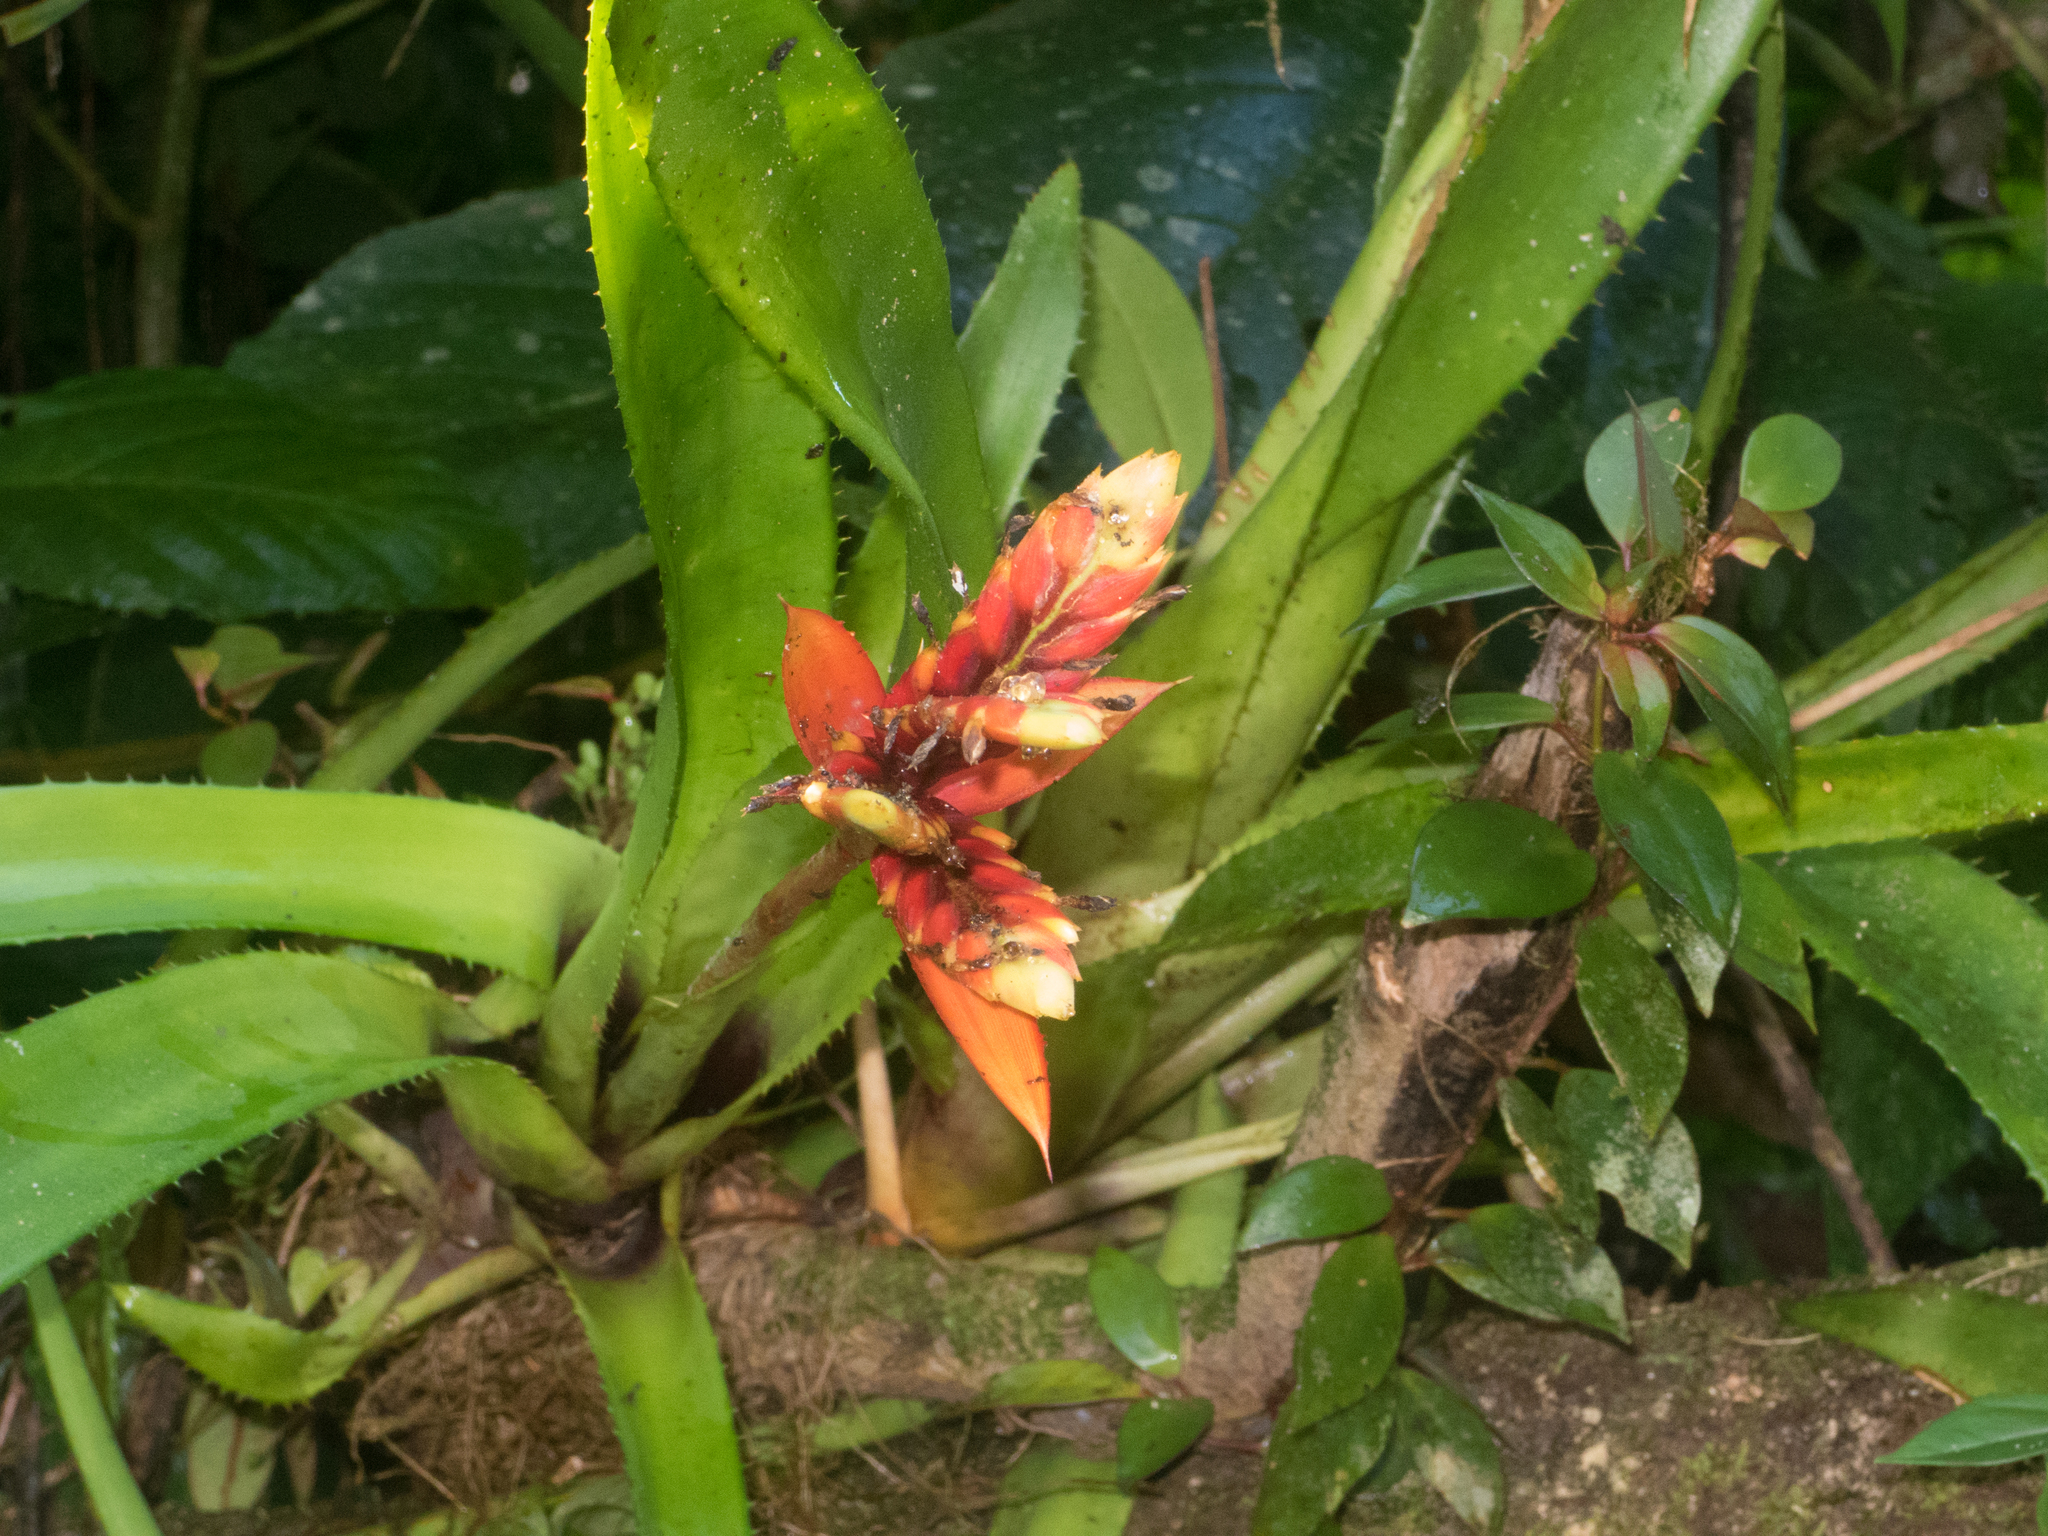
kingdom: Plantae
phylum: Tracheophyta
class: Liliopsida
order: Poales
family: Bromeliaceae
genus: Aechmea
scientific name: Aechmea tillandsioides
